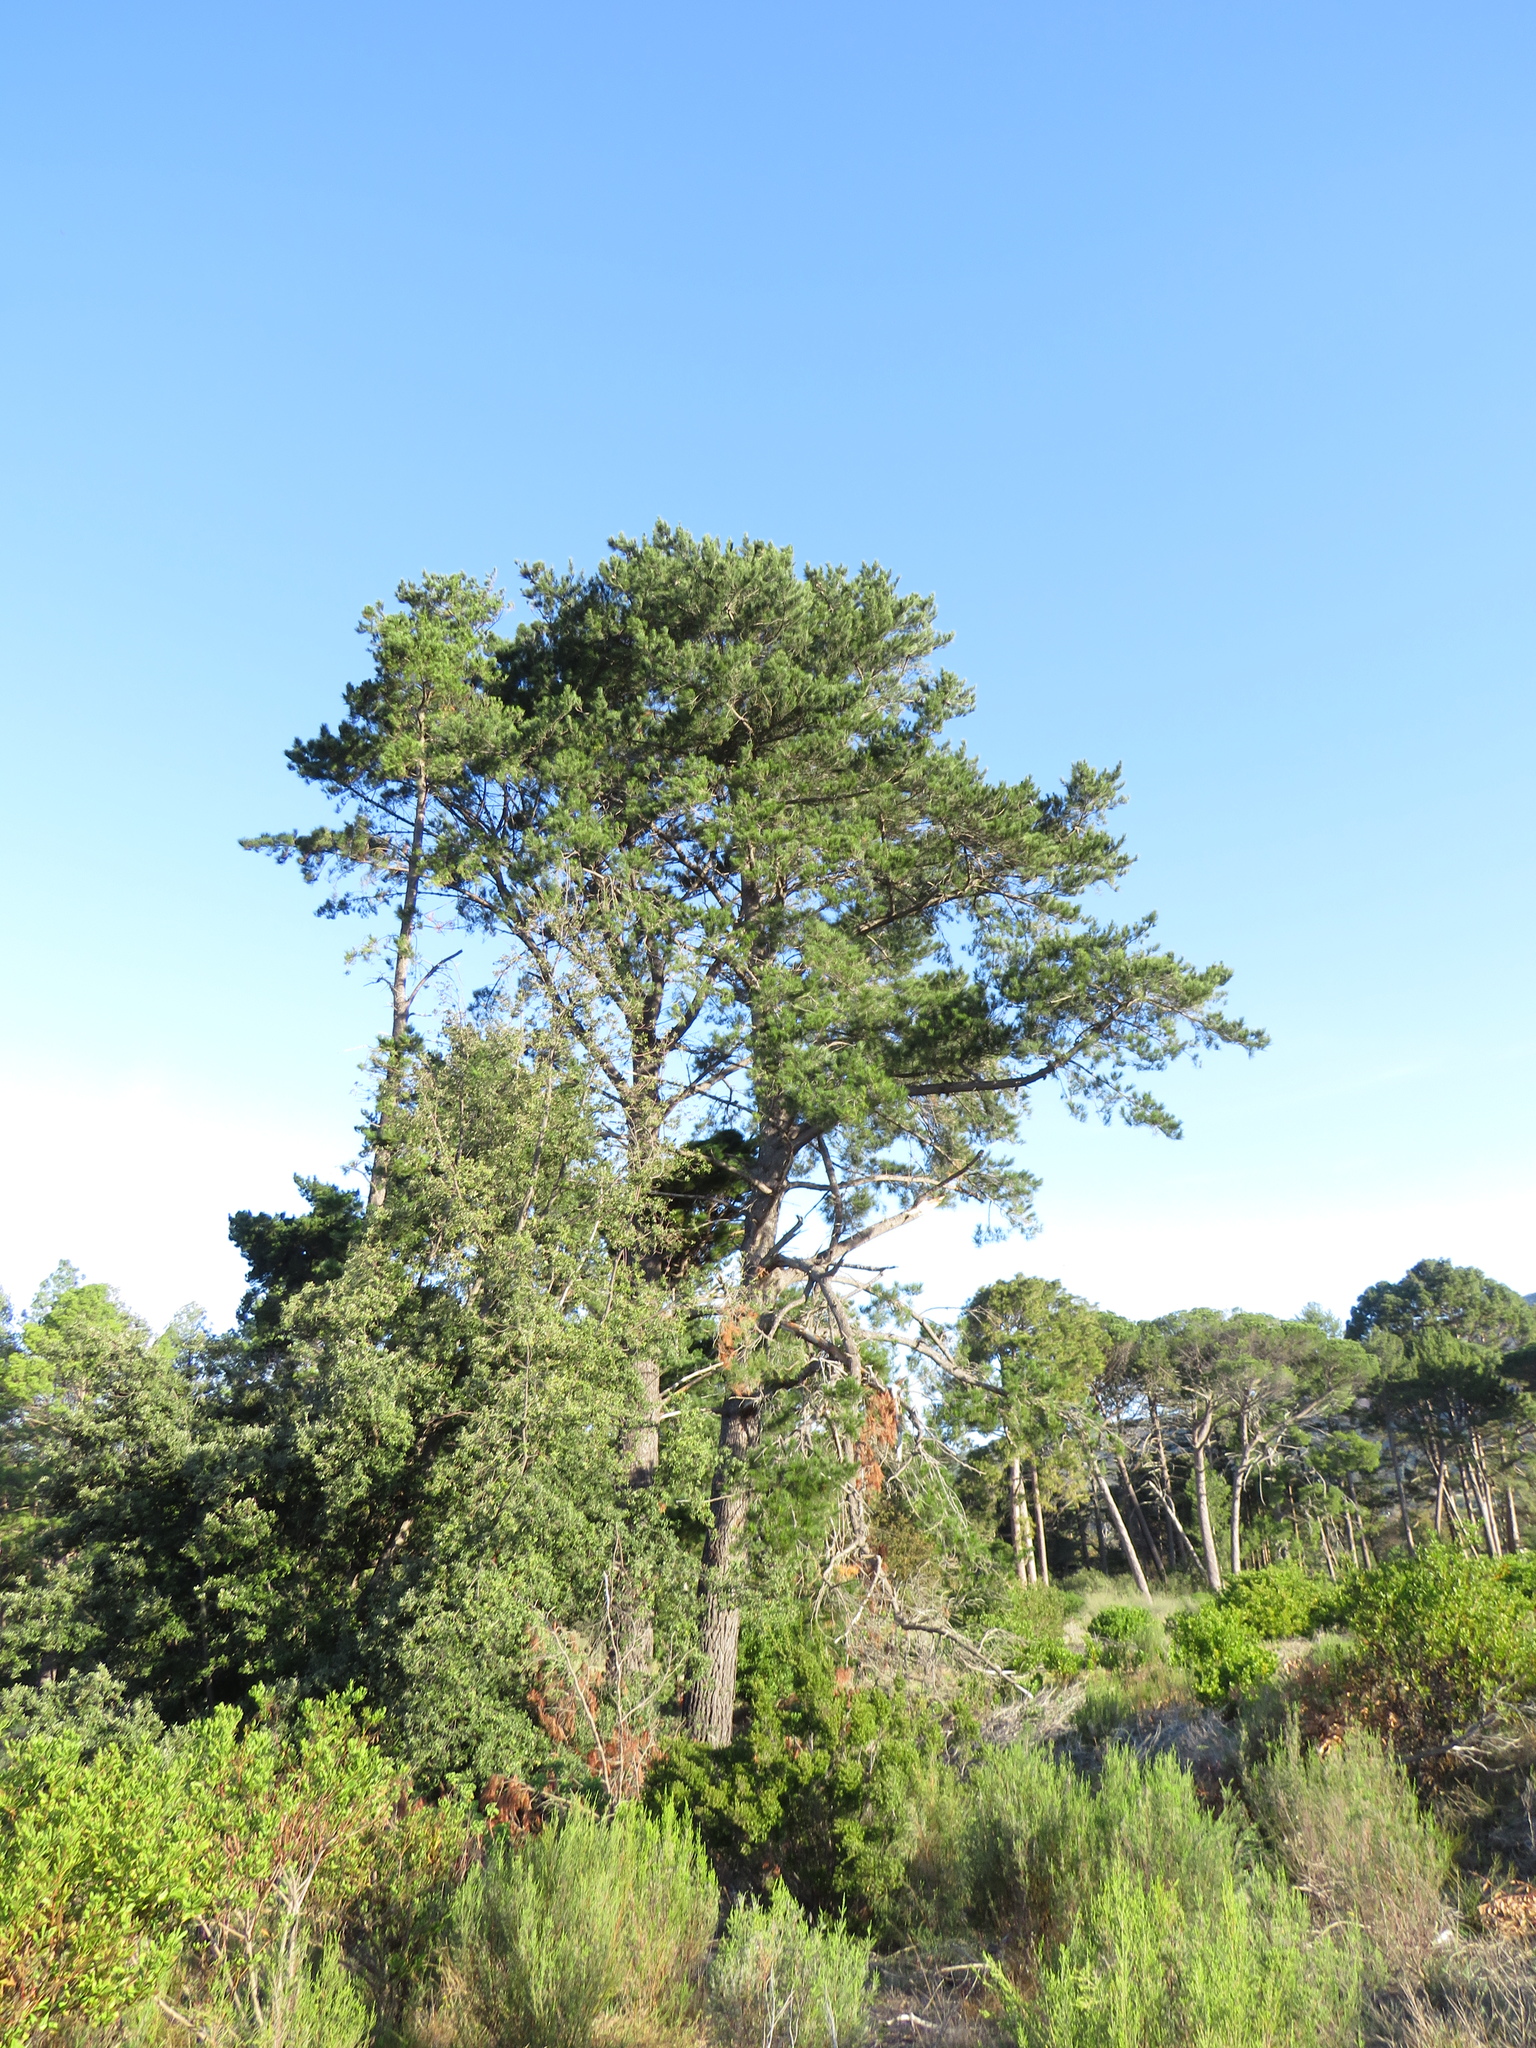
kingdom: Plantae
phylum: Tracheophyta
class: Pinopsida
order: Pinales
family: Pinaceae
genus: Pinus
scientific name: Pinus radiata
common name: Monterey pine
